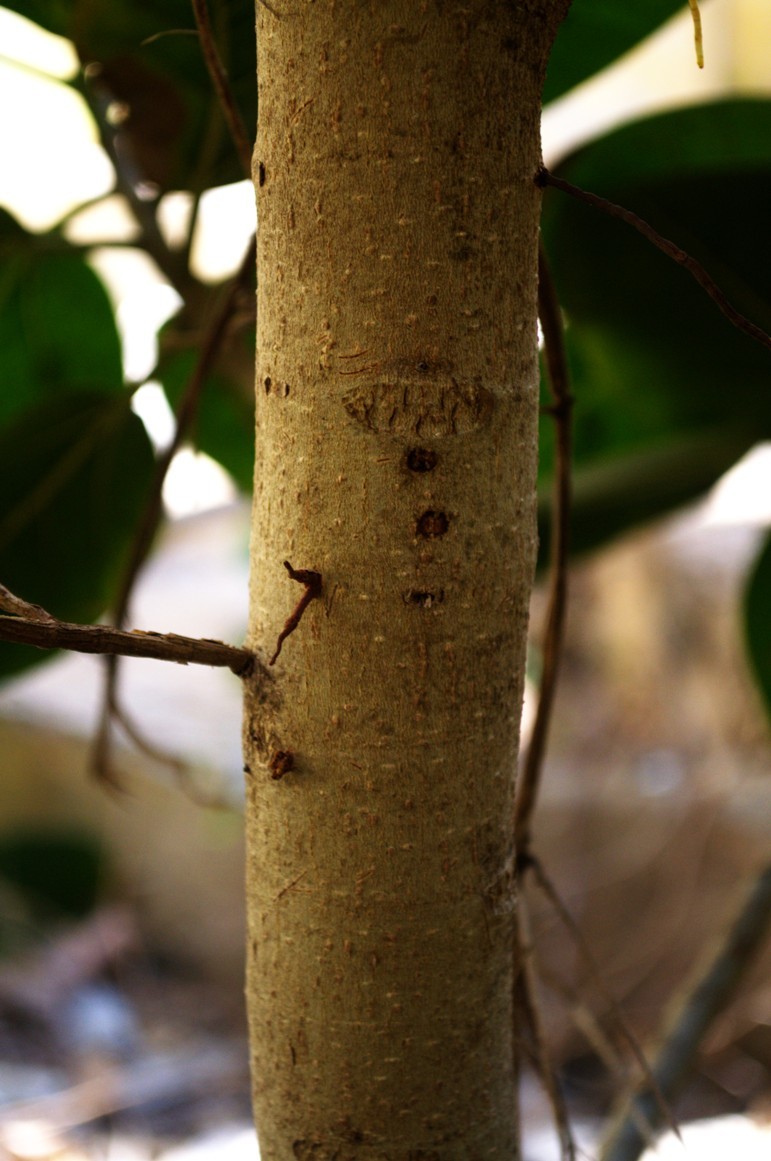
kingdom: Plantae
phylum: Tracheophyta
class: Magnoliopsida
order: Rosales
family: Moraceae
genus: Ficus
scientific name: Ficus benghalensis
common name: Indian banyan
